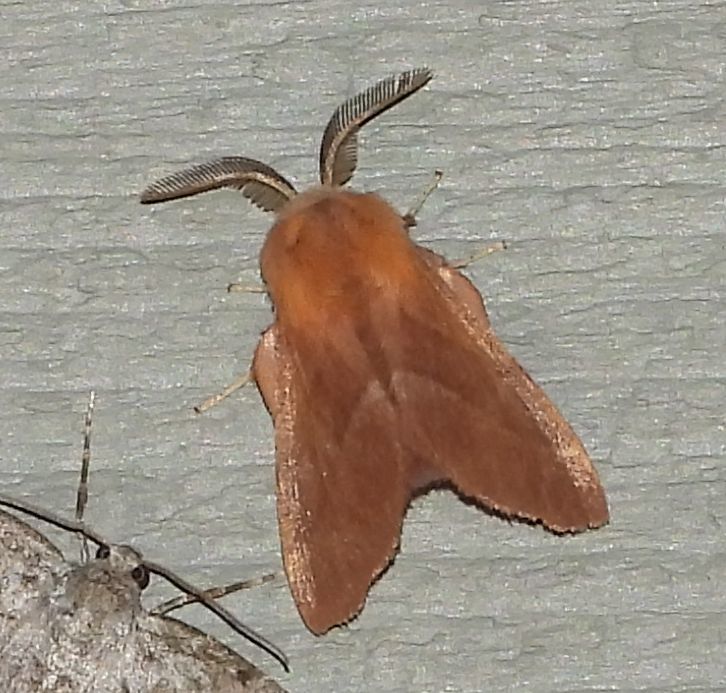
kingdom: Animalia
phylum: Arthropoda
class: Insecta
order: Lepidoptera
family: Lasiocampidae
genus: Malacosoma
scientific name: Malacosoma disstria
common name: Forest tent caterpillar
